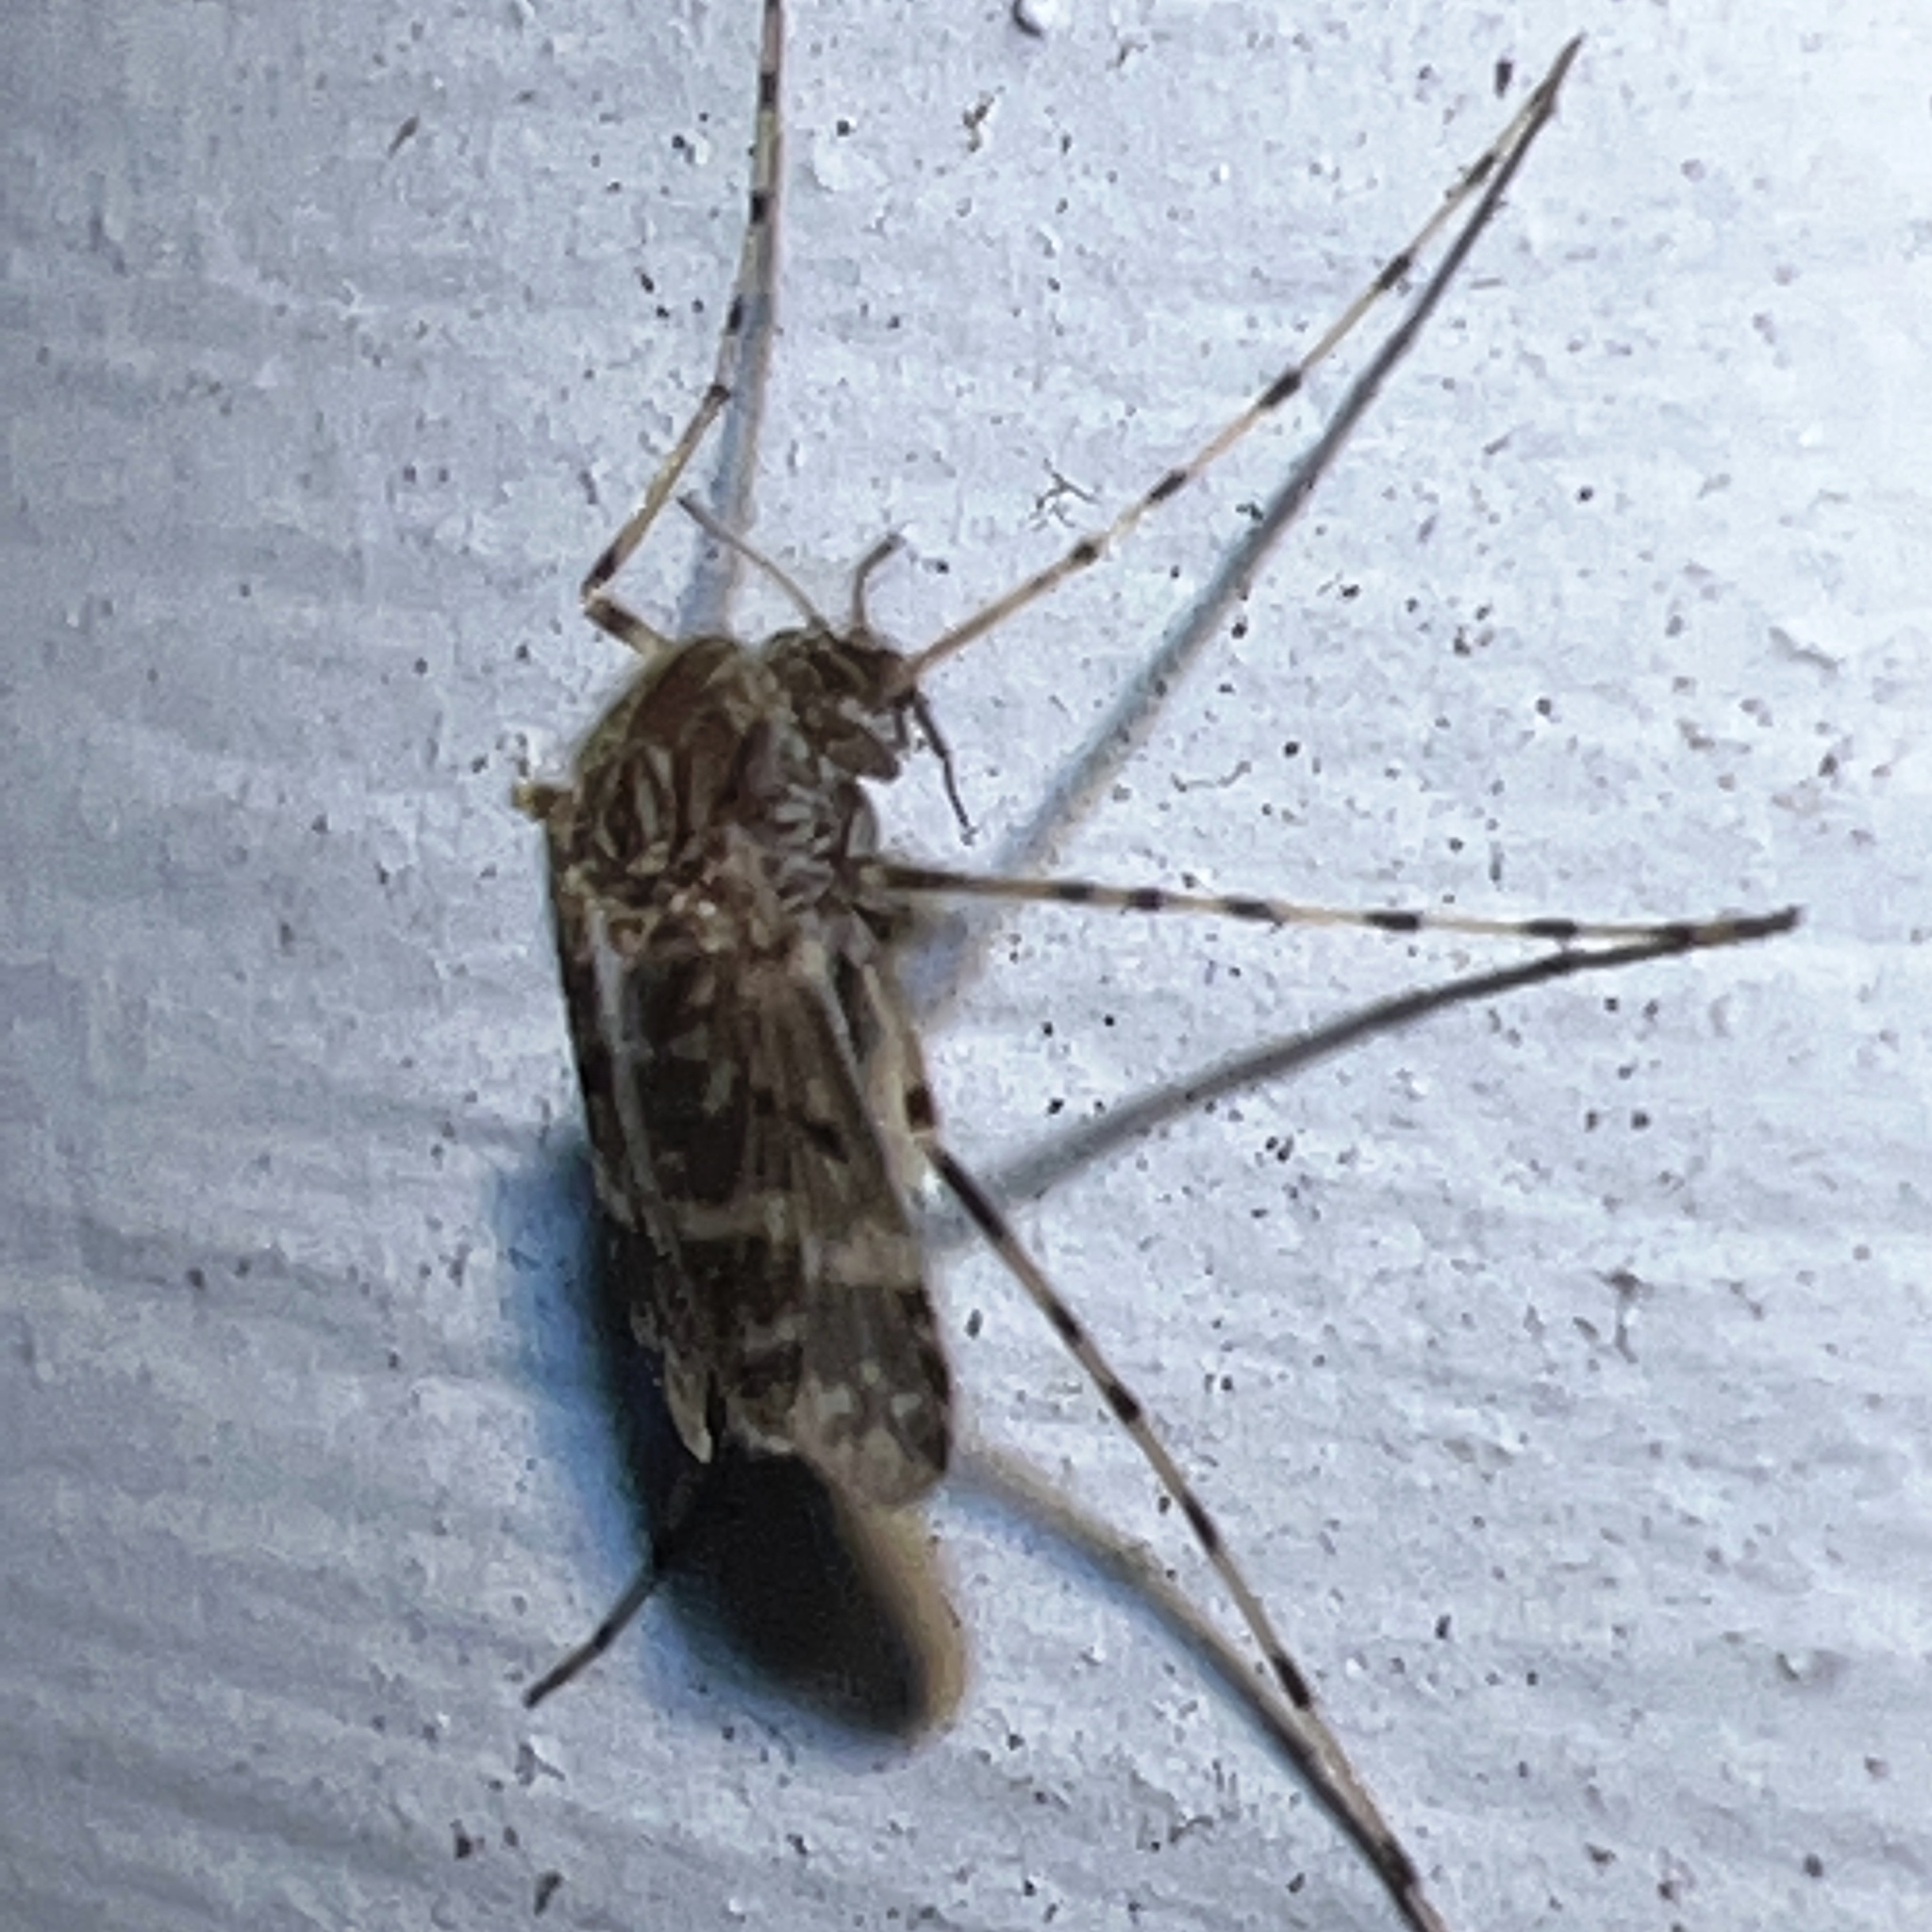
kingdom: Animalia
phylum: Arthropoda
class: Insecta
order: Diptera
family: Chironomidae
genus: Ablabesmyia
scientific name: Ablabesmyia annulata
